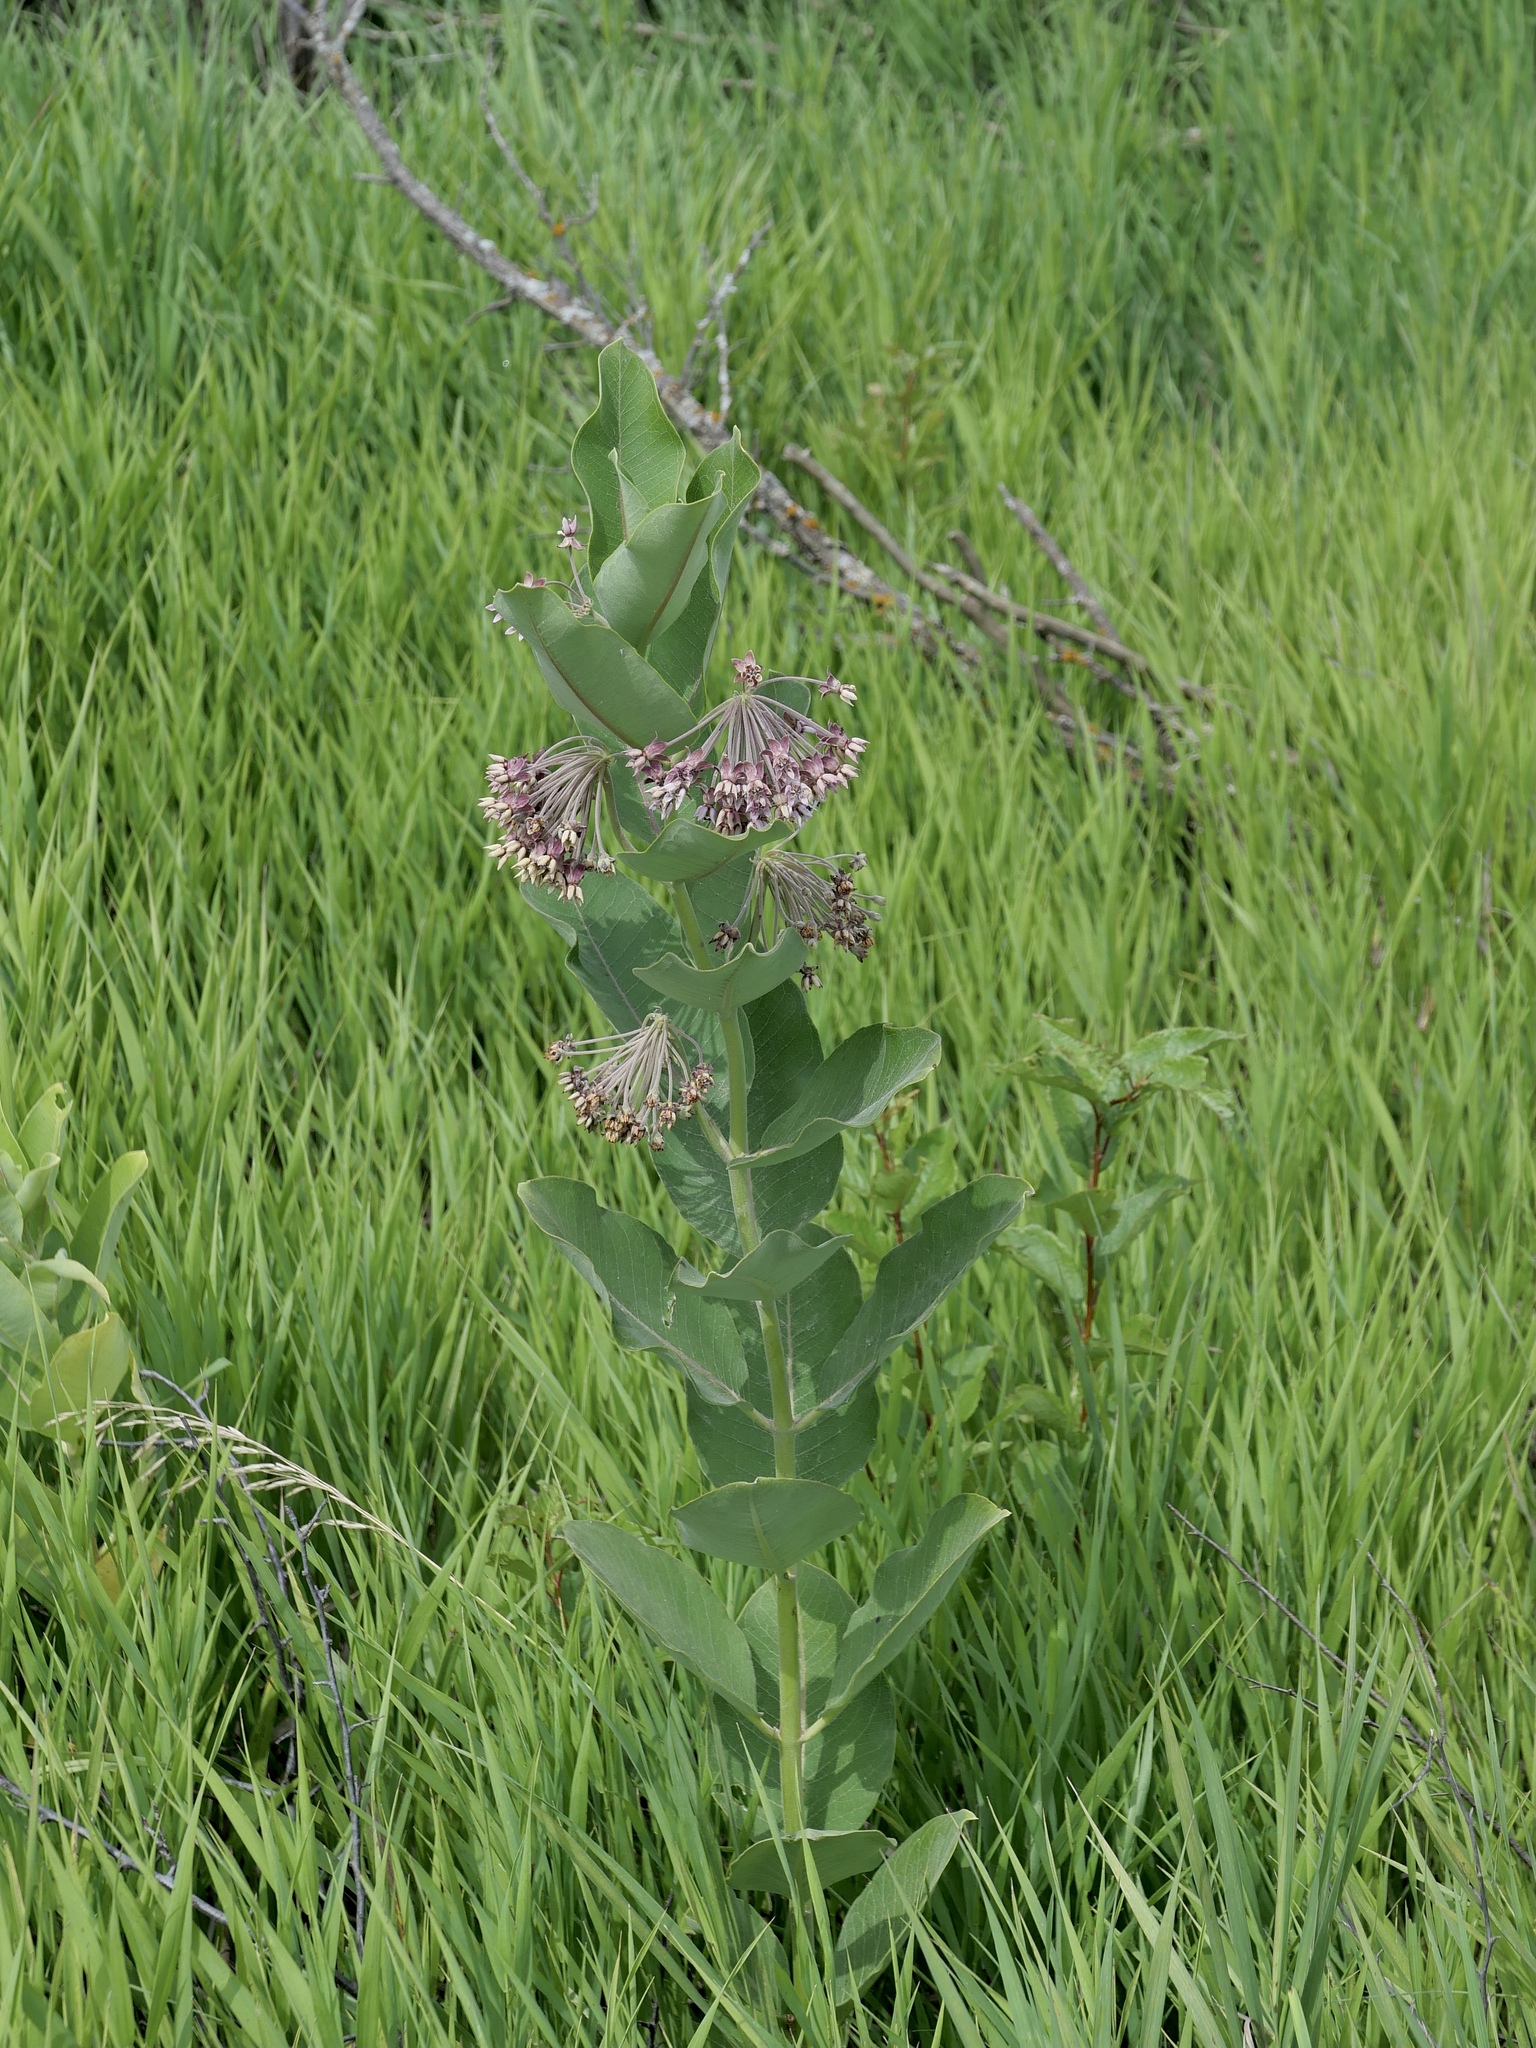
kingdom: Plantae
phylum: Tracheophyta
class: Magnoliopsida
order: Gentianales
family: Apocynaceae
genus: Asclepias
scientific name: Asclepias syriaca
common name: Common milkweed
